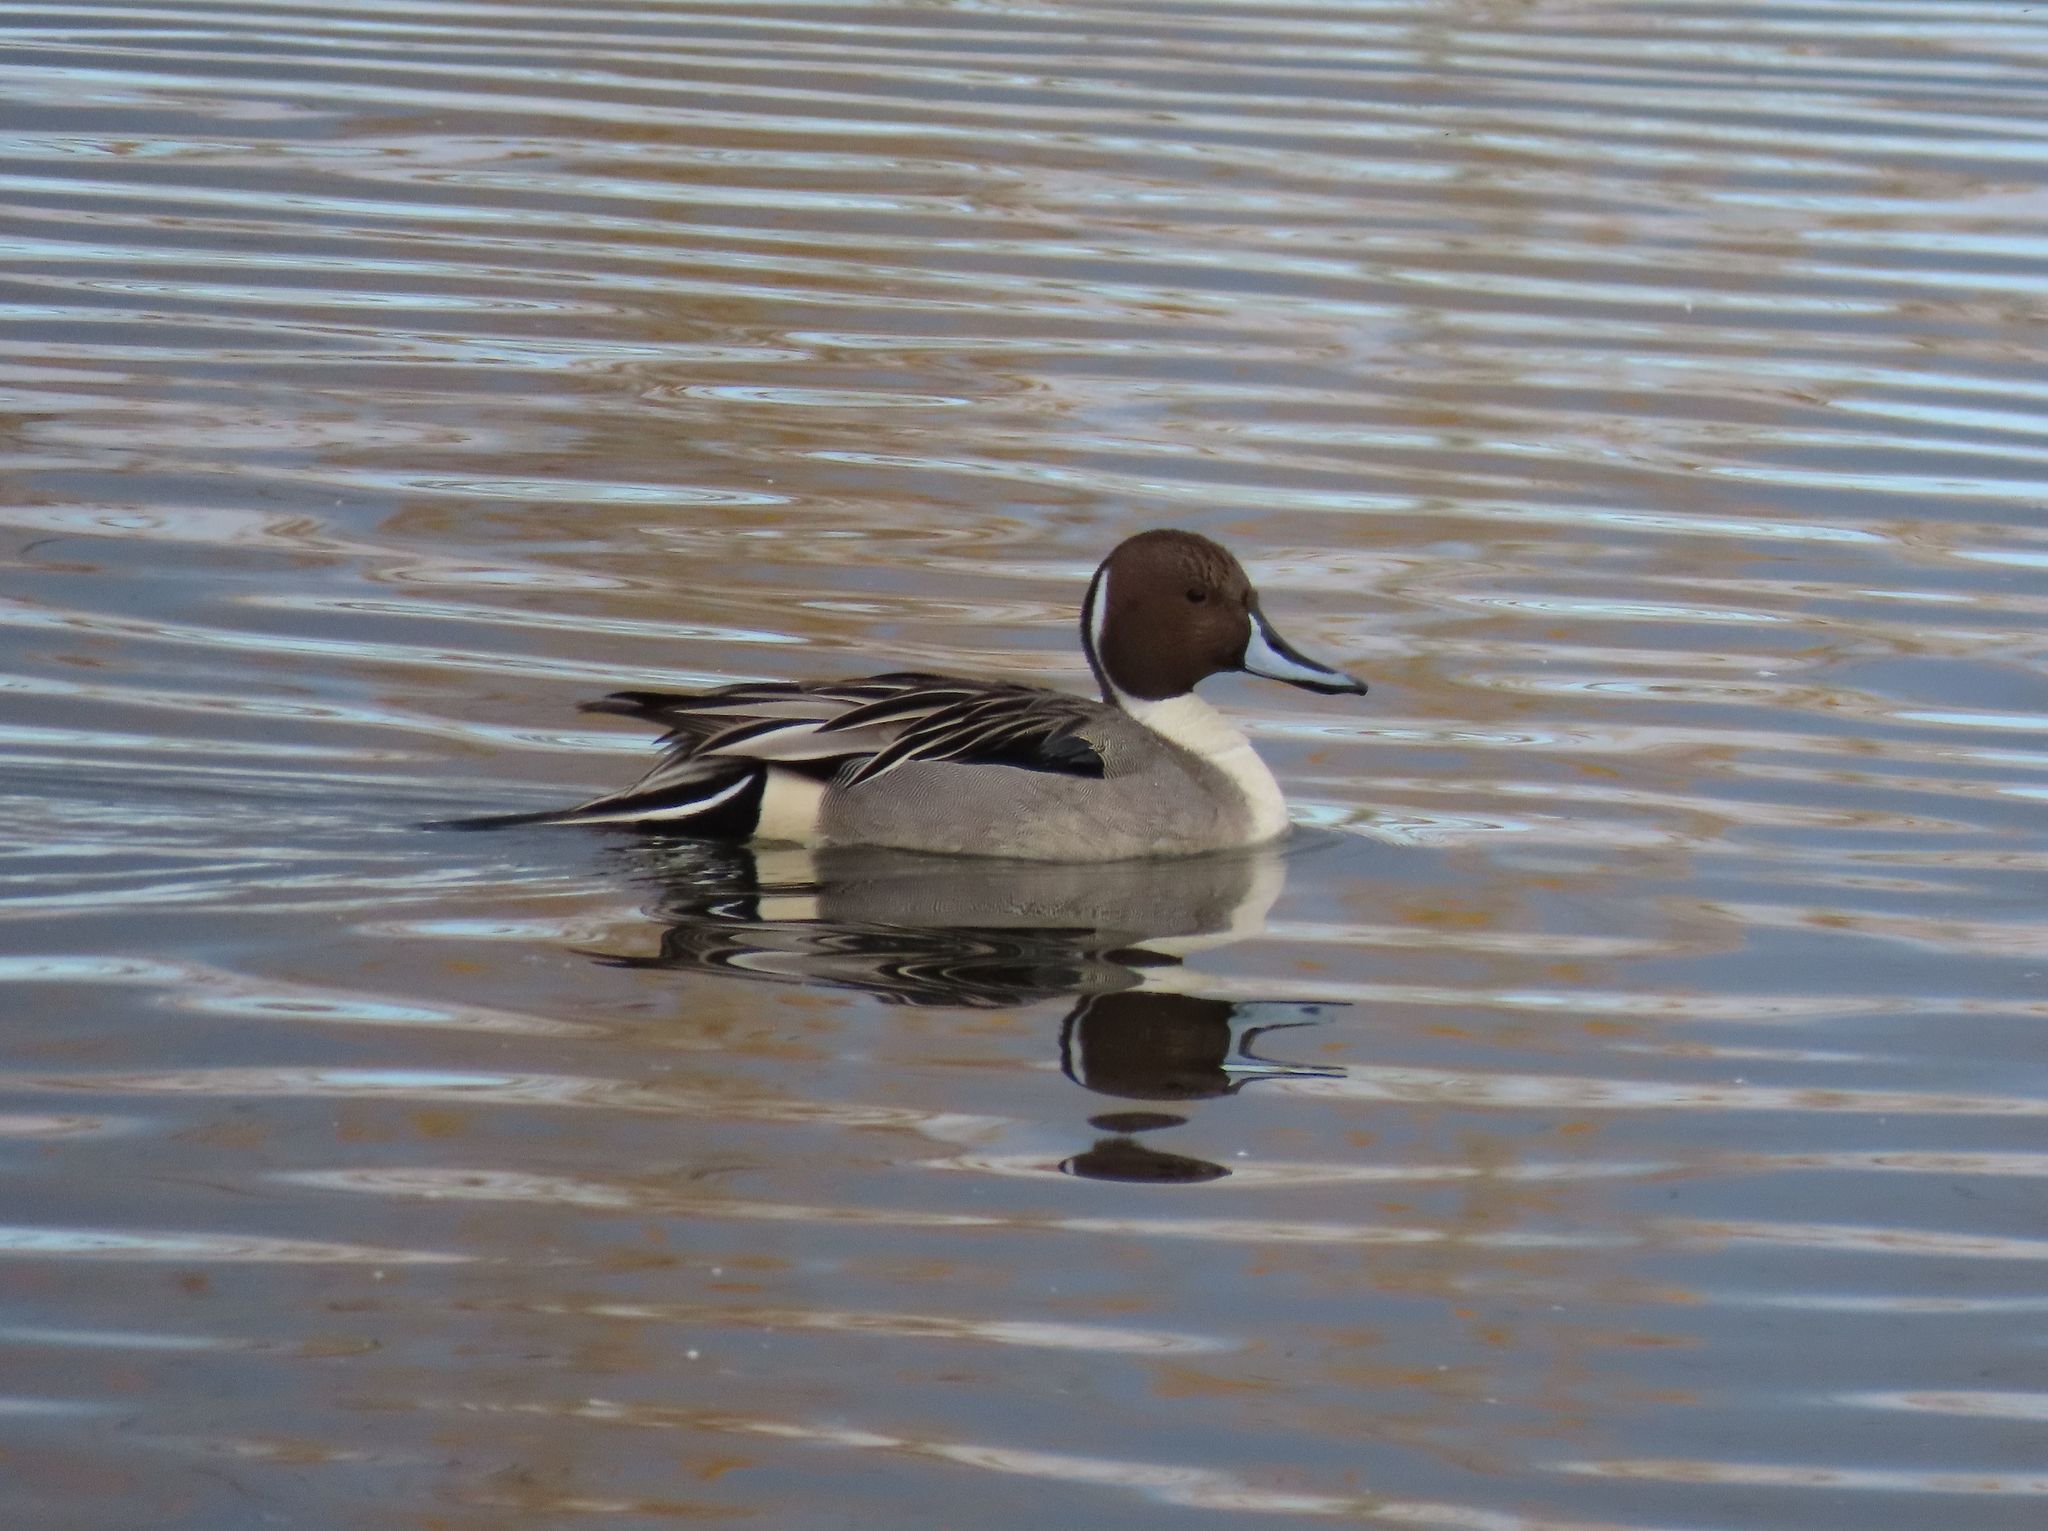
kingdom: Animalia
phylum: Chordata
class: Aves
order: Anseriformes
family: Anatidae
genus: Anas
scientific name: Anas acuta
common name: Northern pintail
